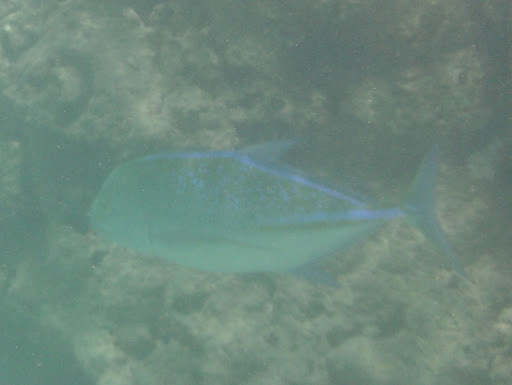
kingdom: Animalia
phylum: Chordata
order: Perciformes
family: Carangidae
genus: Caranx
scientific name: Caranx melampygus
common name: Bluefin trevally
